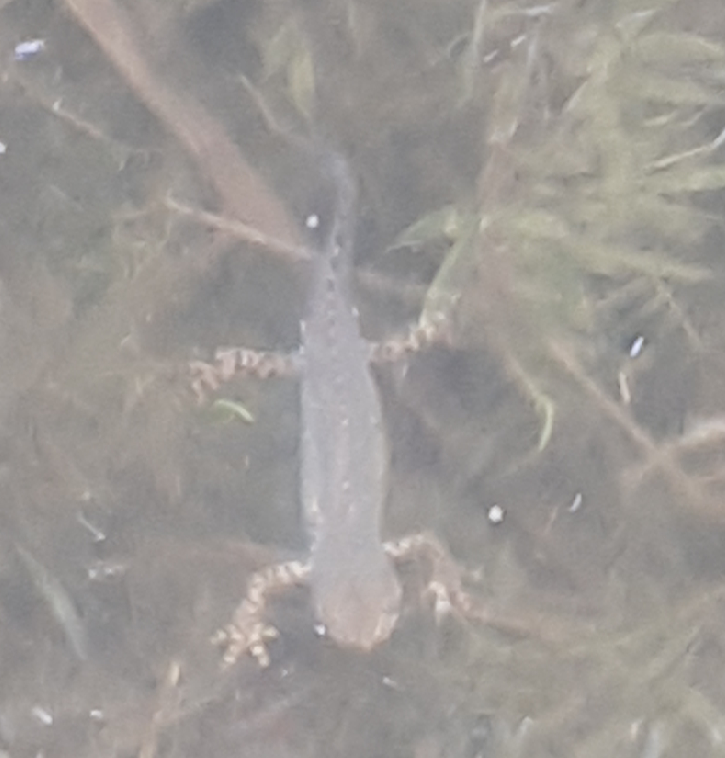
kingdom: Animalia
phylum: Chordata
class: Amphibia
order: Caudata
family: Salamandridae
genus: Ichthyosaura
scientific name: Ichthyosaura alpestris
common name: Alpine newt
